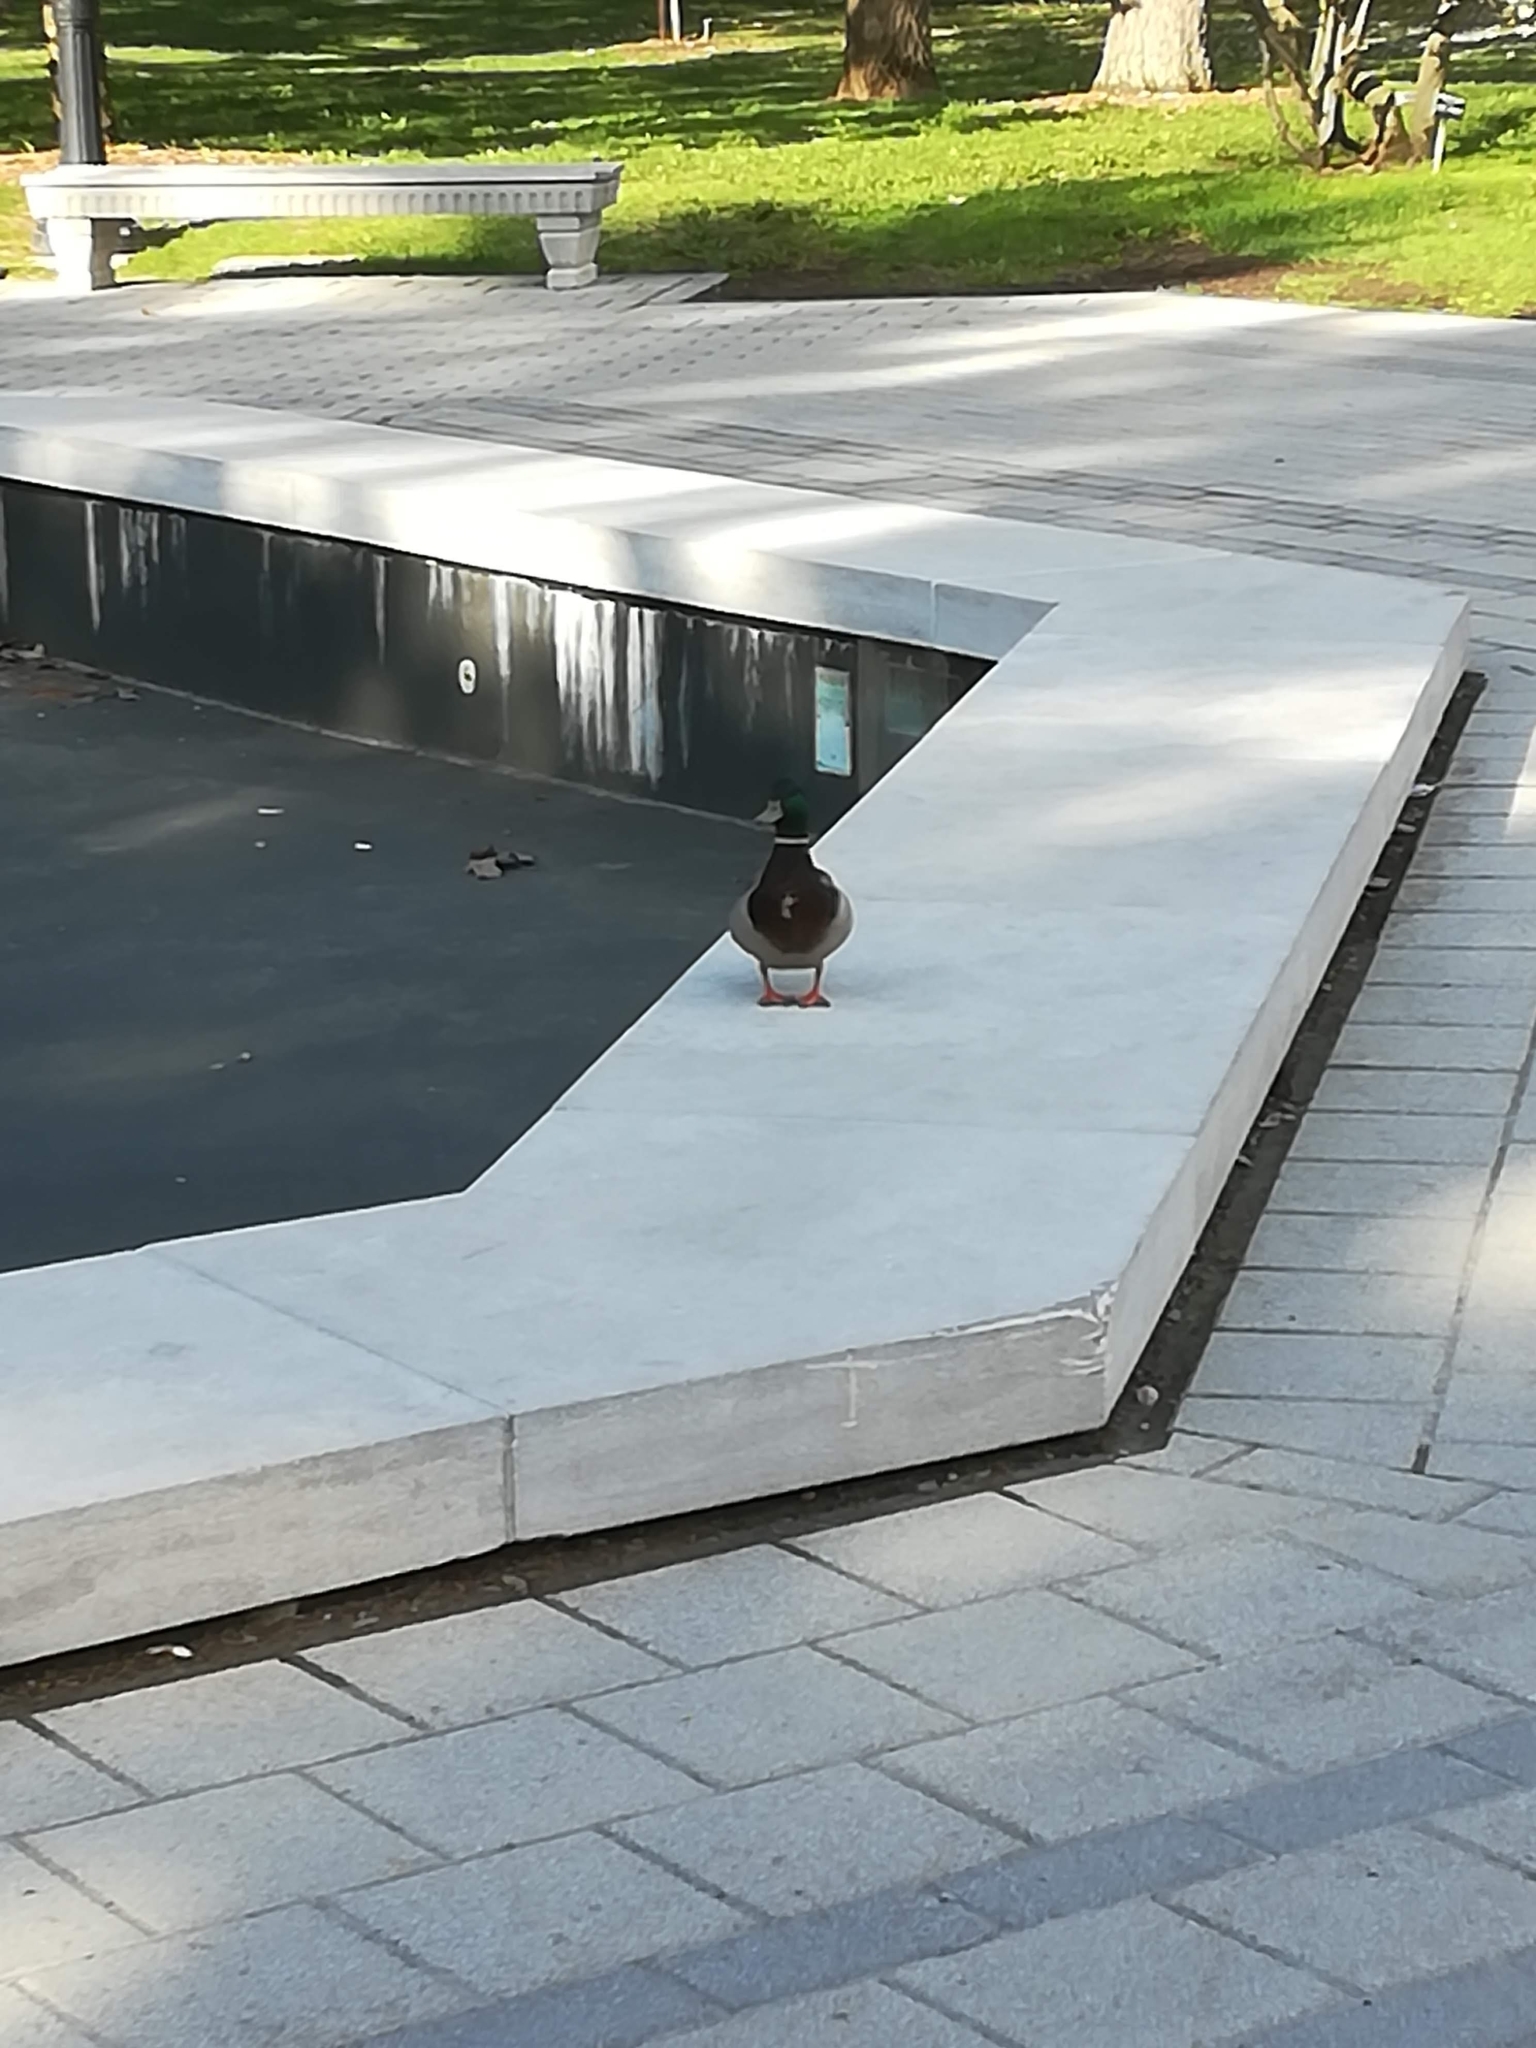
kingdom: Animalia
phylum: Chordata
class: Aves
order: Anseriformes
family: Anatidae
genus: Anas
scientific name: Anas platyrhynchos
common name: Mallard
